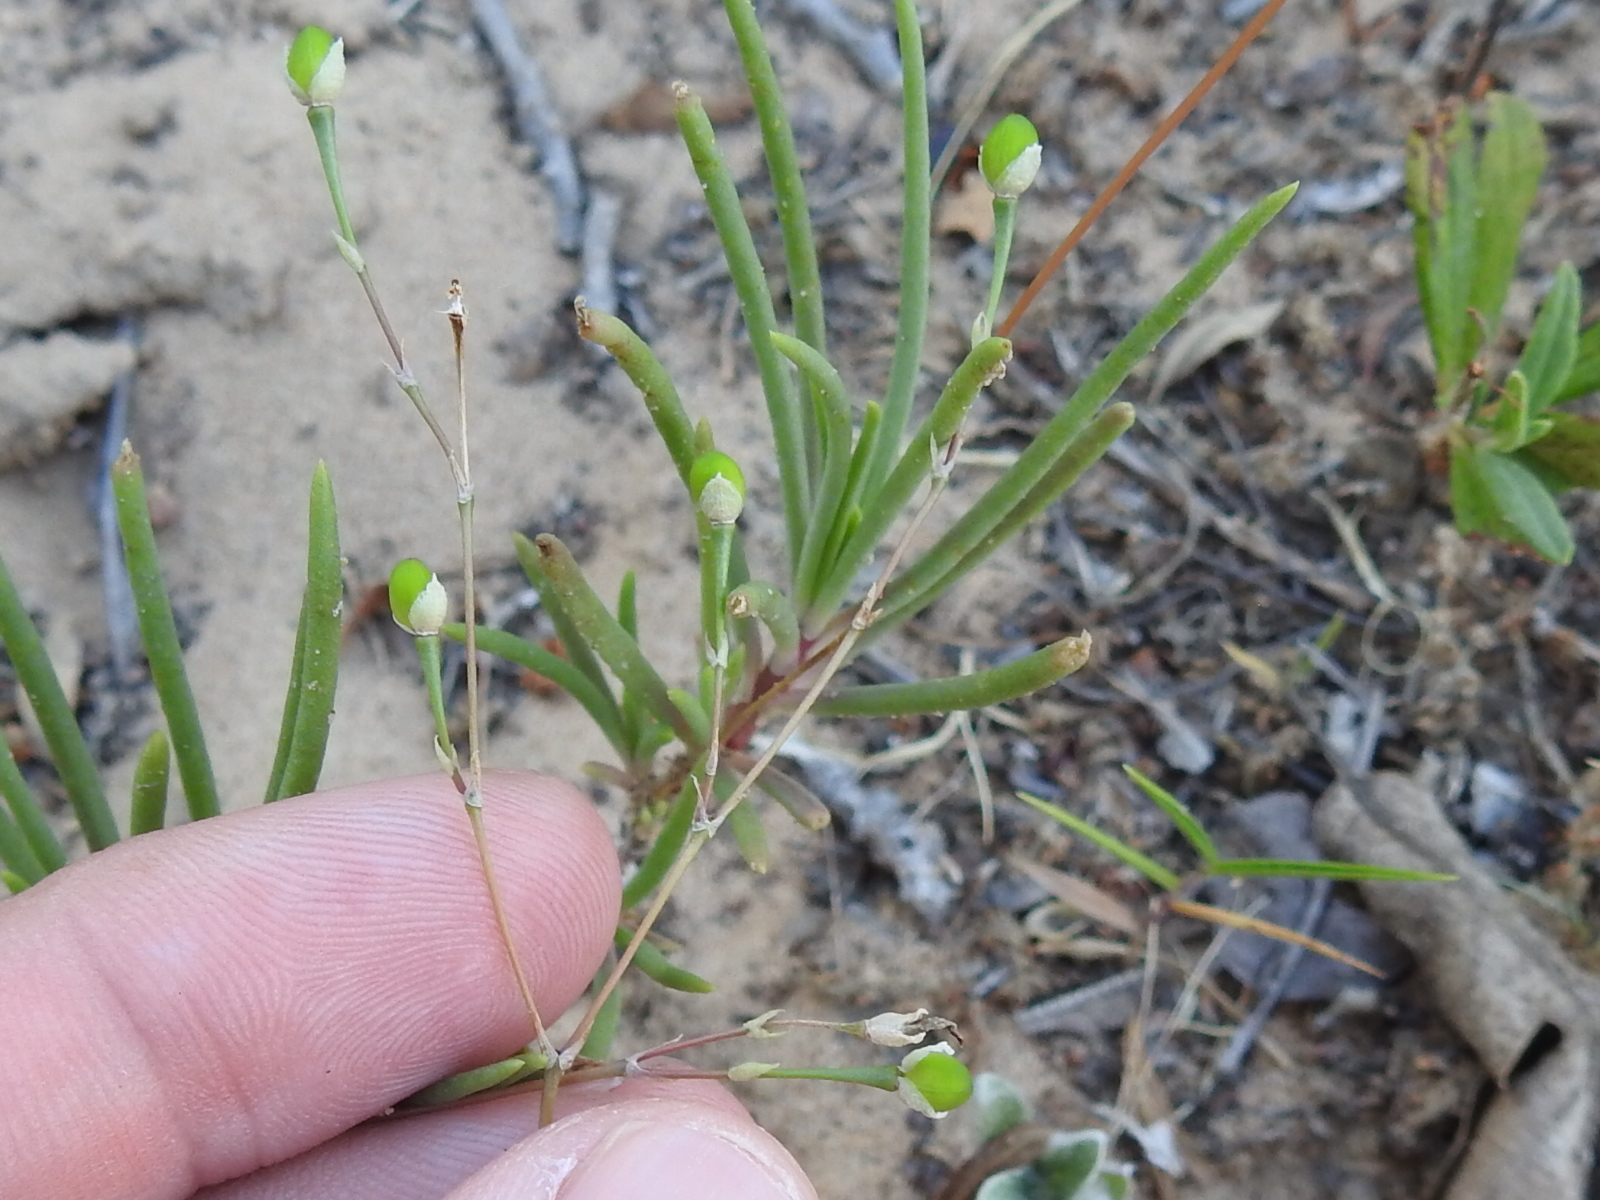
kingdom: Plantae
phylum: Tracheophyta
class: Magnoliopsida
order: Caryophyllales
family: Montiaceae
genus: Phemeranthus
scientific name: Phemeranthus rugospermus
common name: Prairie fameflower
